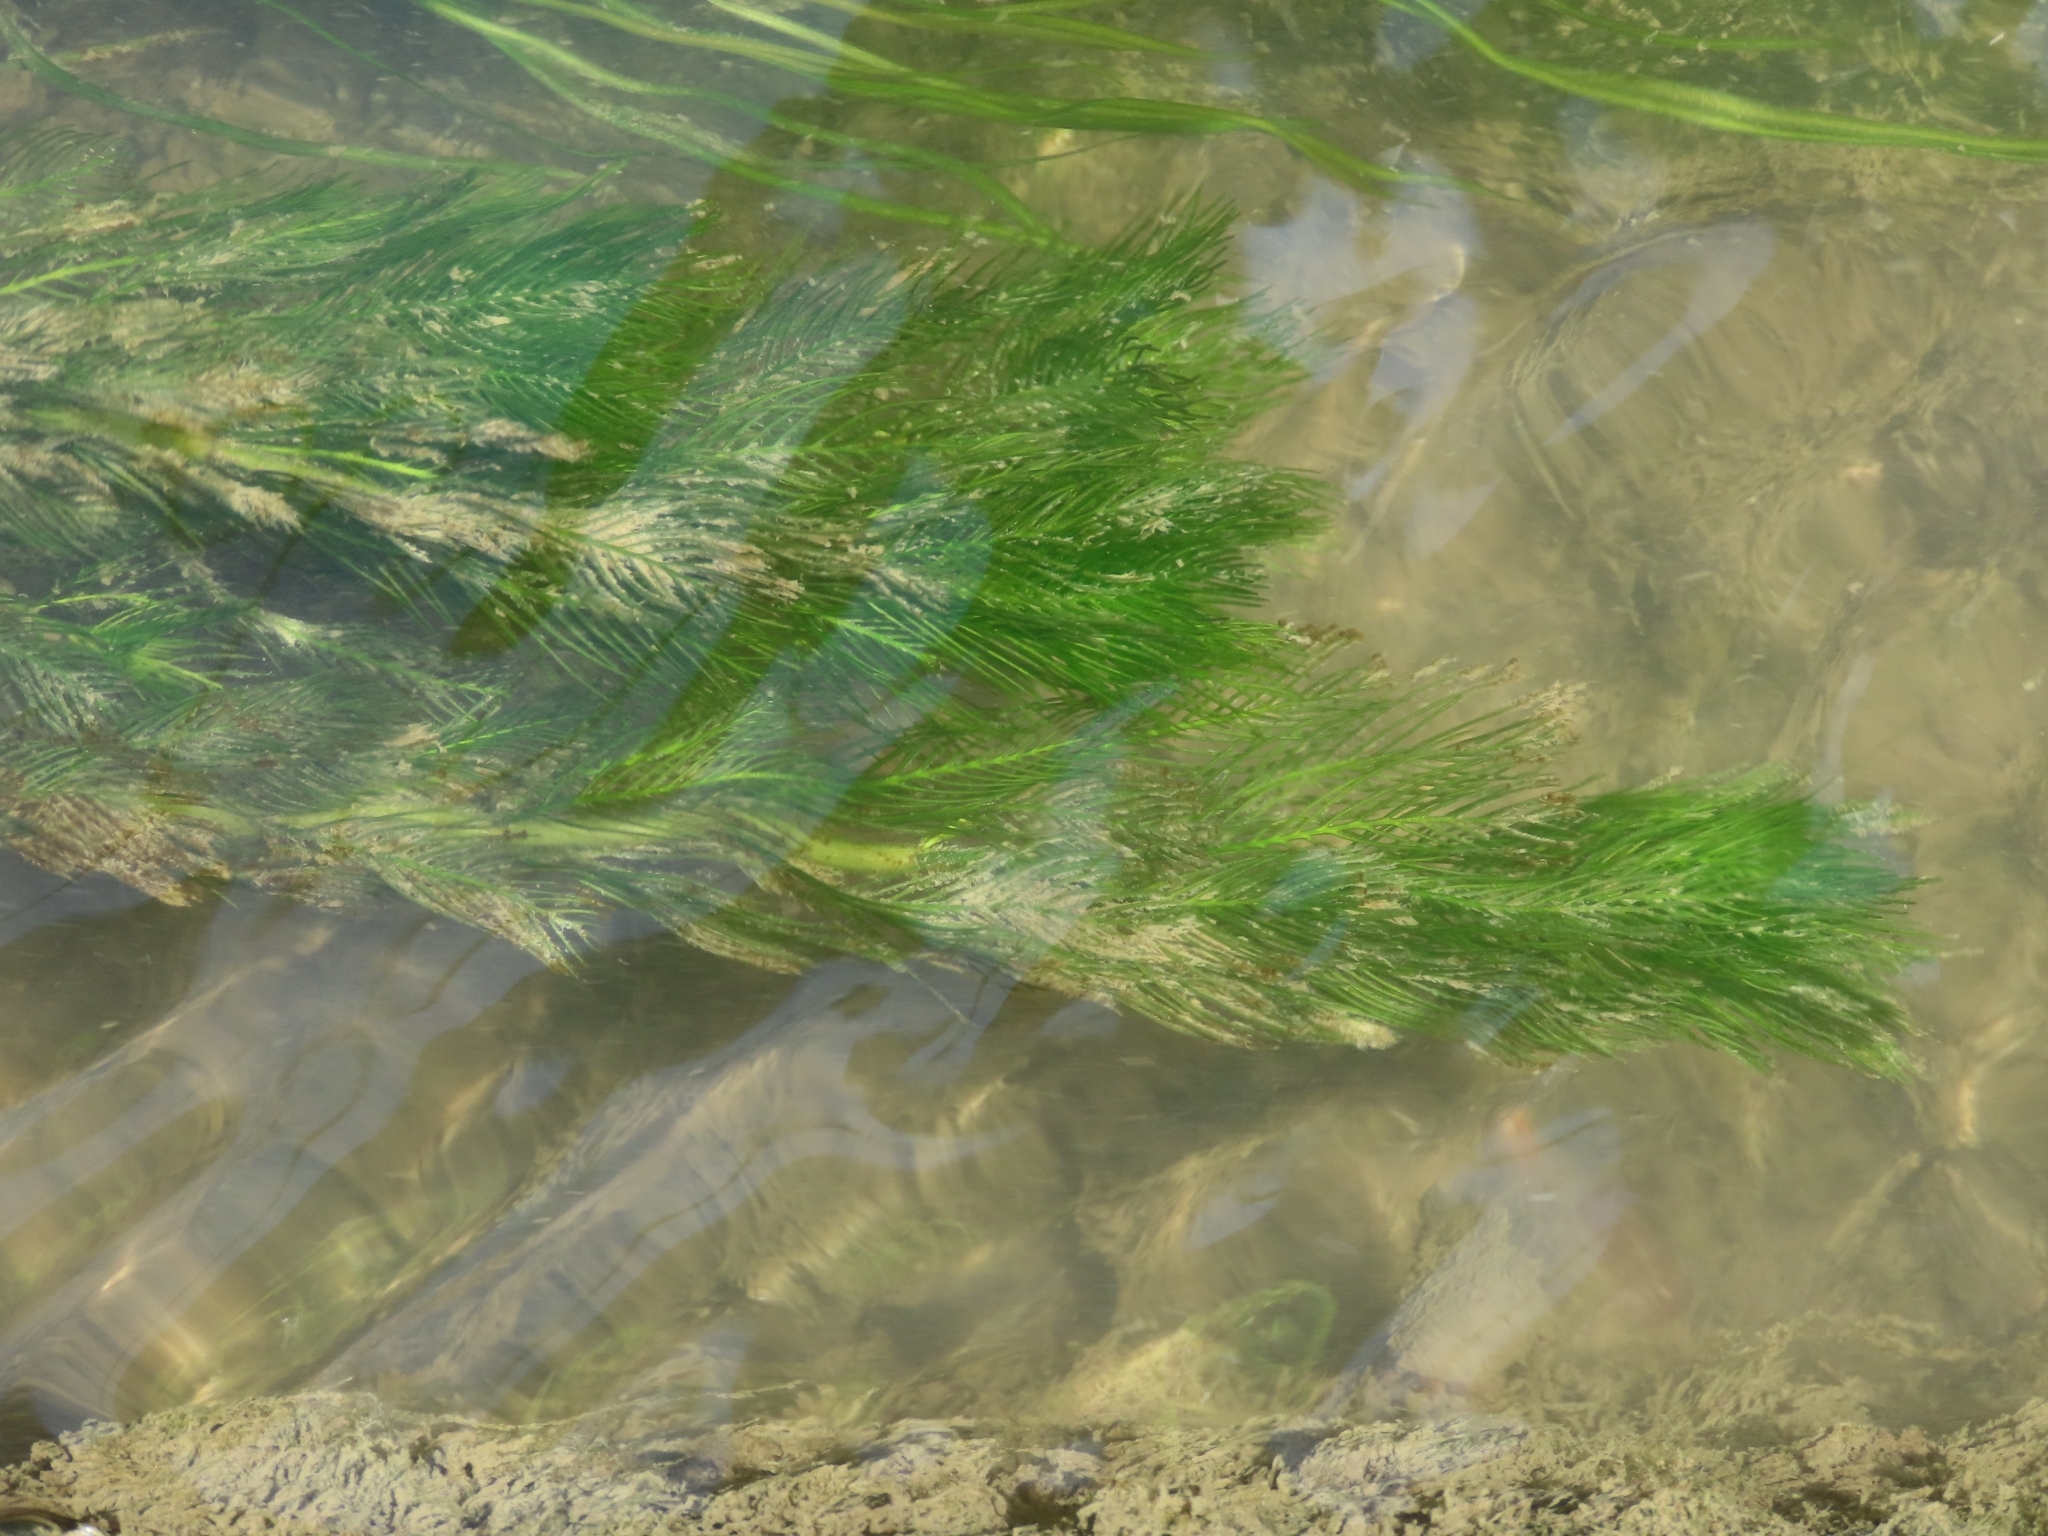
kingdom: Plantae
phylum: Tracheophyta
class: Magnoliopsida
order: Saxifragales
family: Haloragaceae
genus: Myriophyllum
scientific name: Myriophyllum spicatum
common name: Spiked water-milfoil
